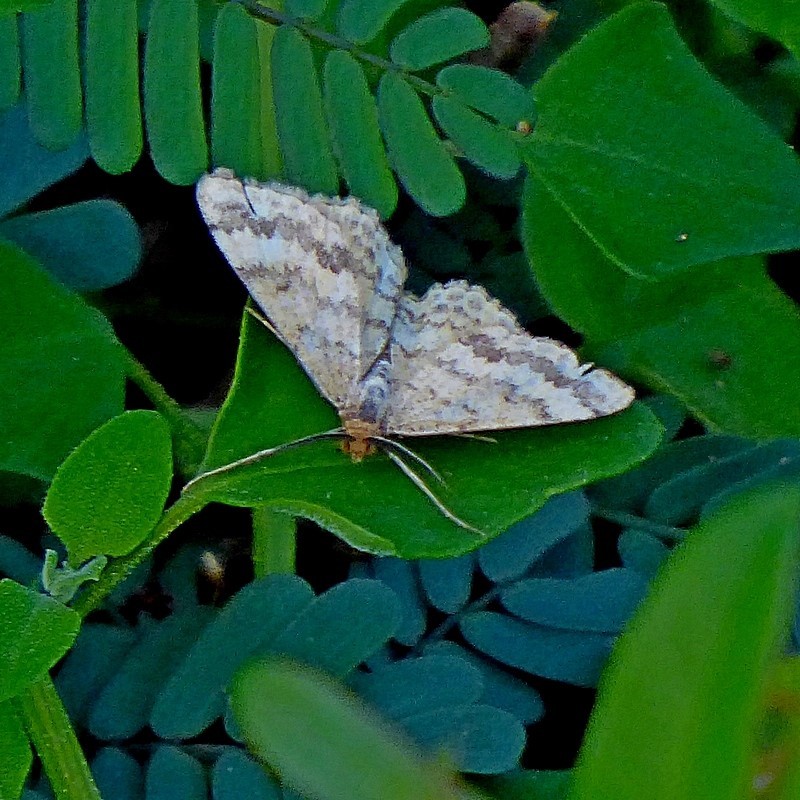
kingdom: Animalia
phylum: Arthropoda
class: Insecta
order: Lepidoptera
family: Geometridae
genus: Scopula
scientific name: Scopula rubraria
